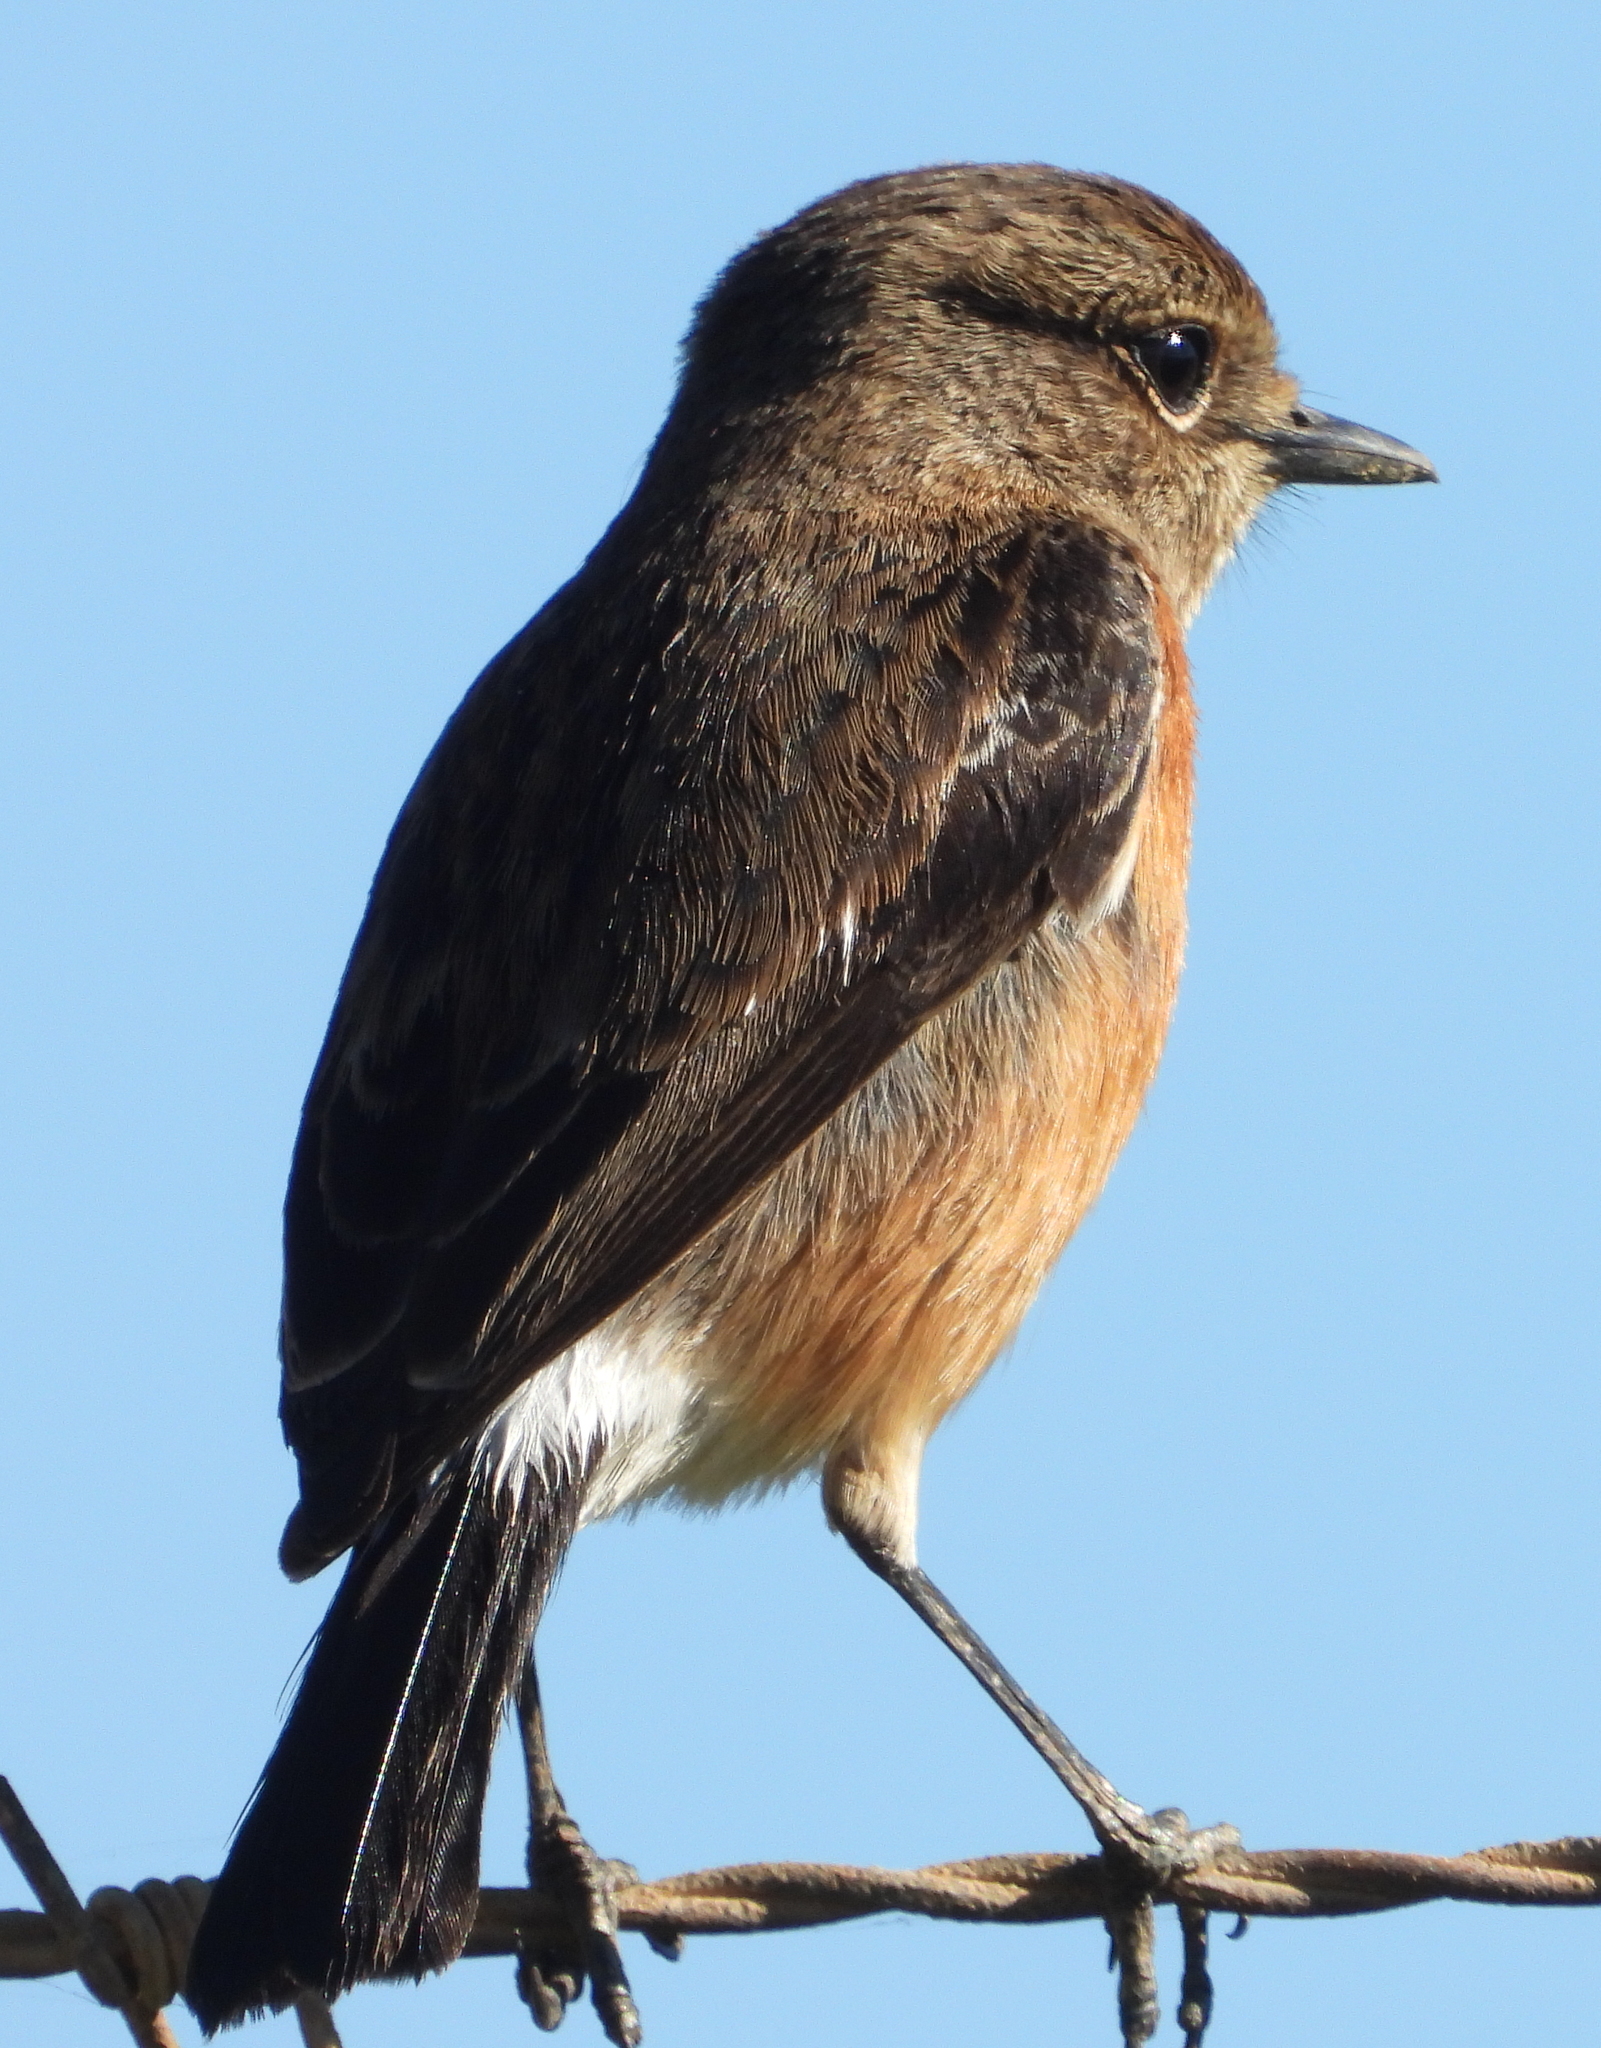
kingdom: Animalia
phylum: Chordata
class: Aves
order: Passeriformes
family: Muscicapidae
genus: Saxicola
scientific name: Saxicola torquatus
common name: African stonechat
